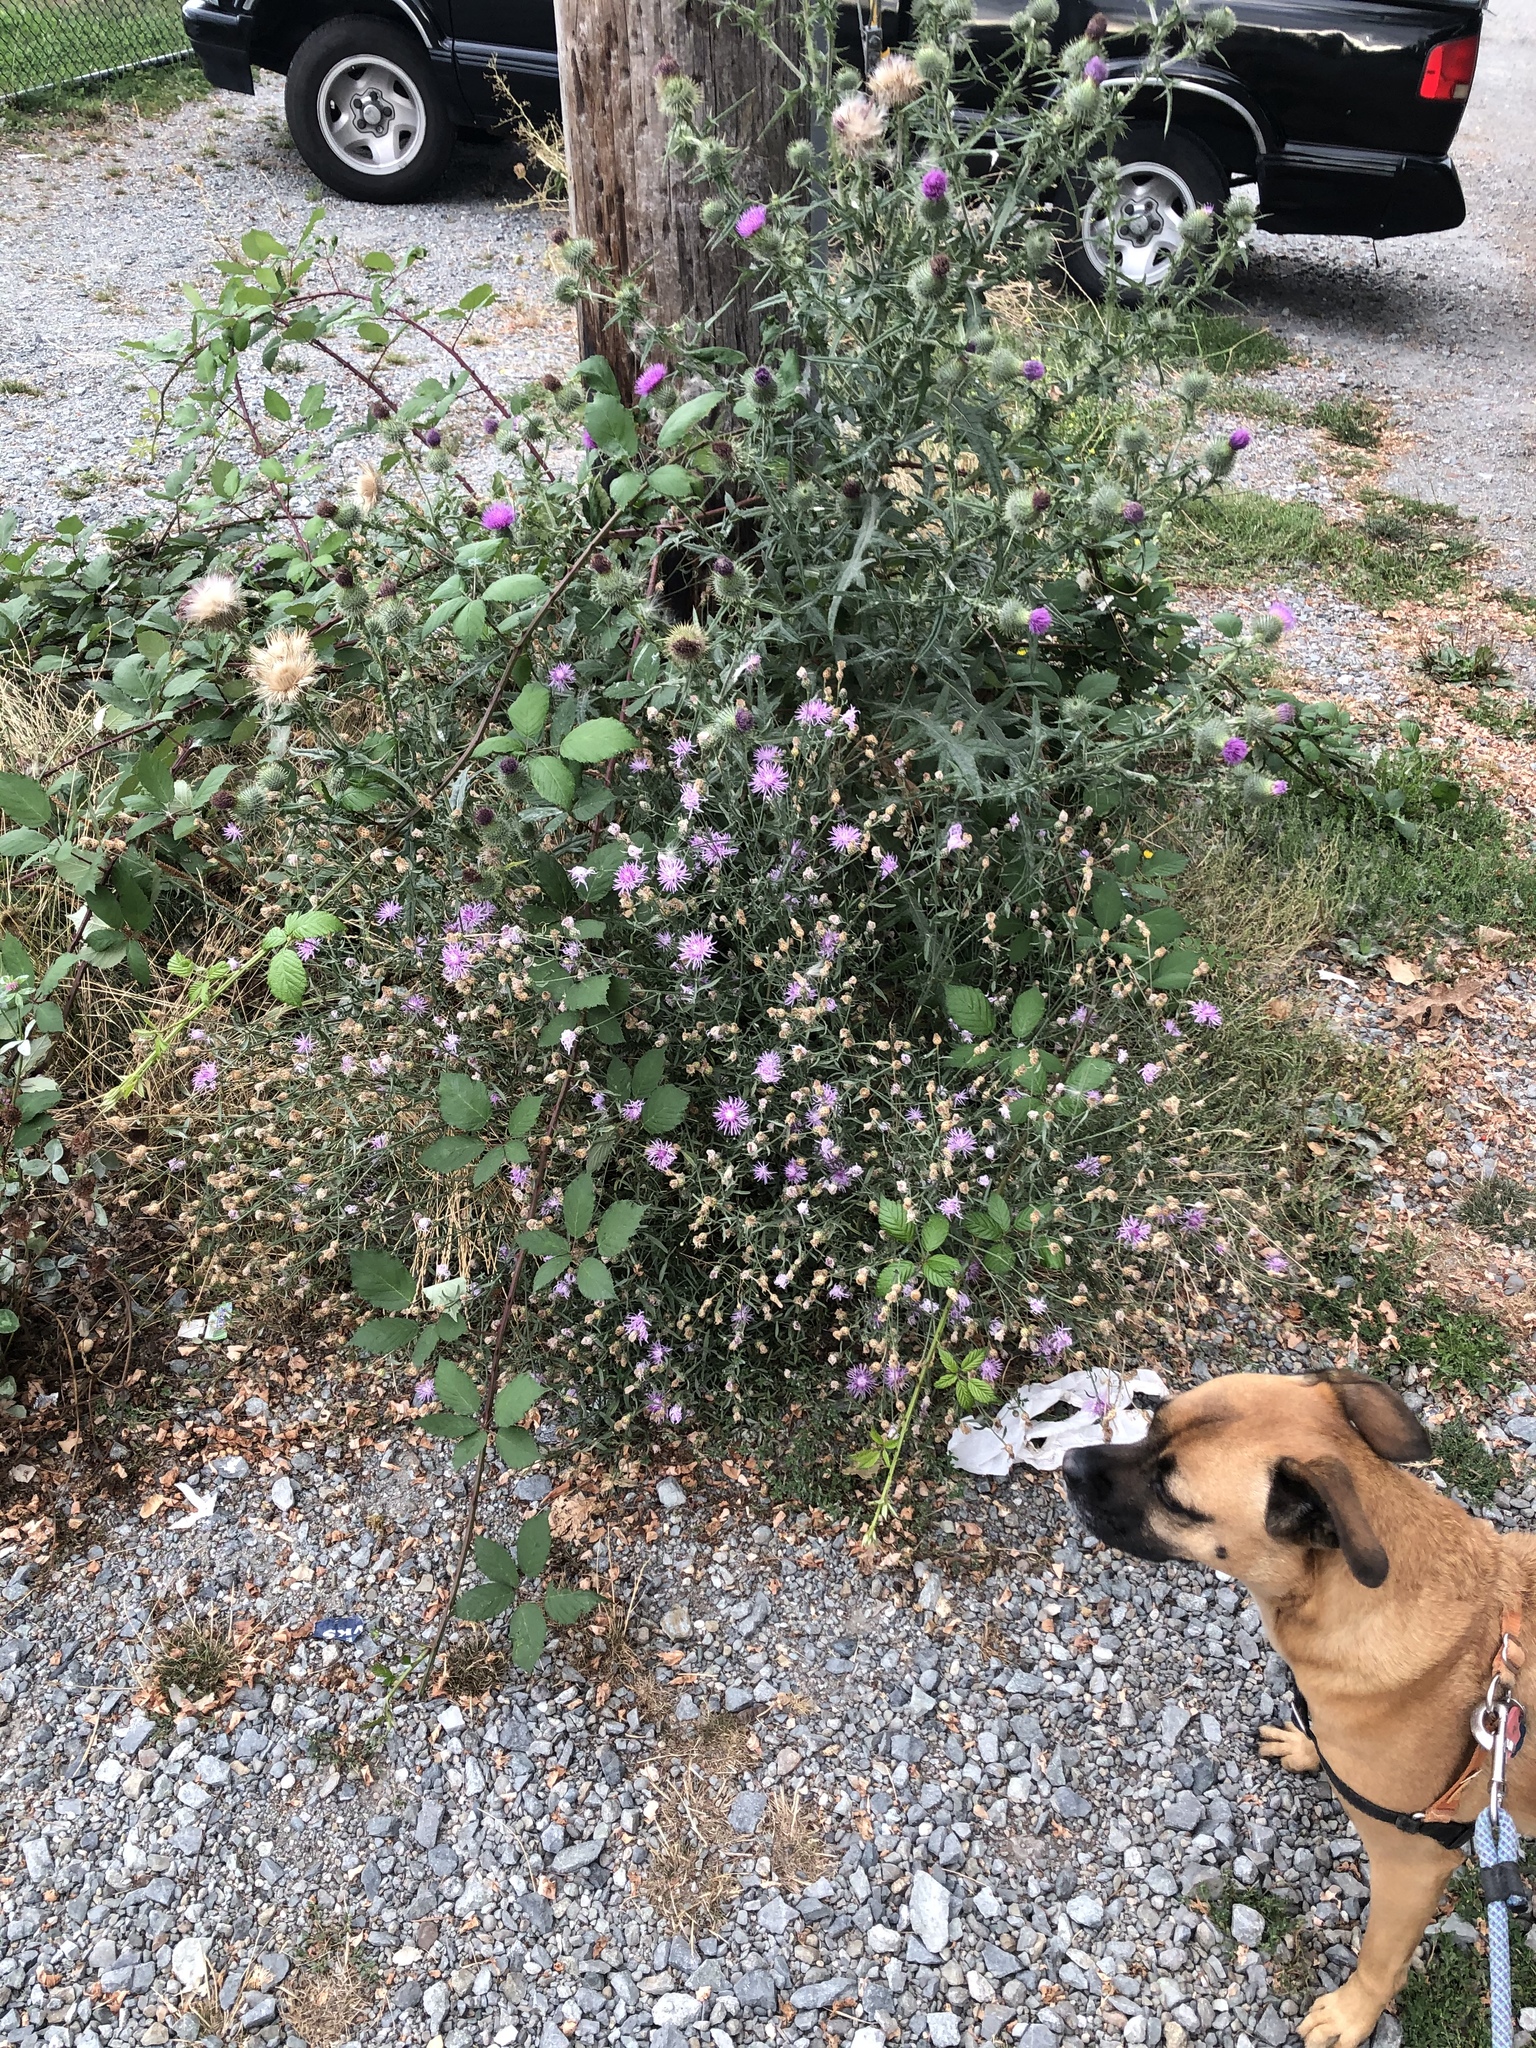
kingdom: Plantae
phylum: Tracheophyta
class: Magnoliopsida
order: Asterales
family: Asteraceae
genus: Centaurea
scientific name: Centaurea stoebe
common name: Spotted knapweed
